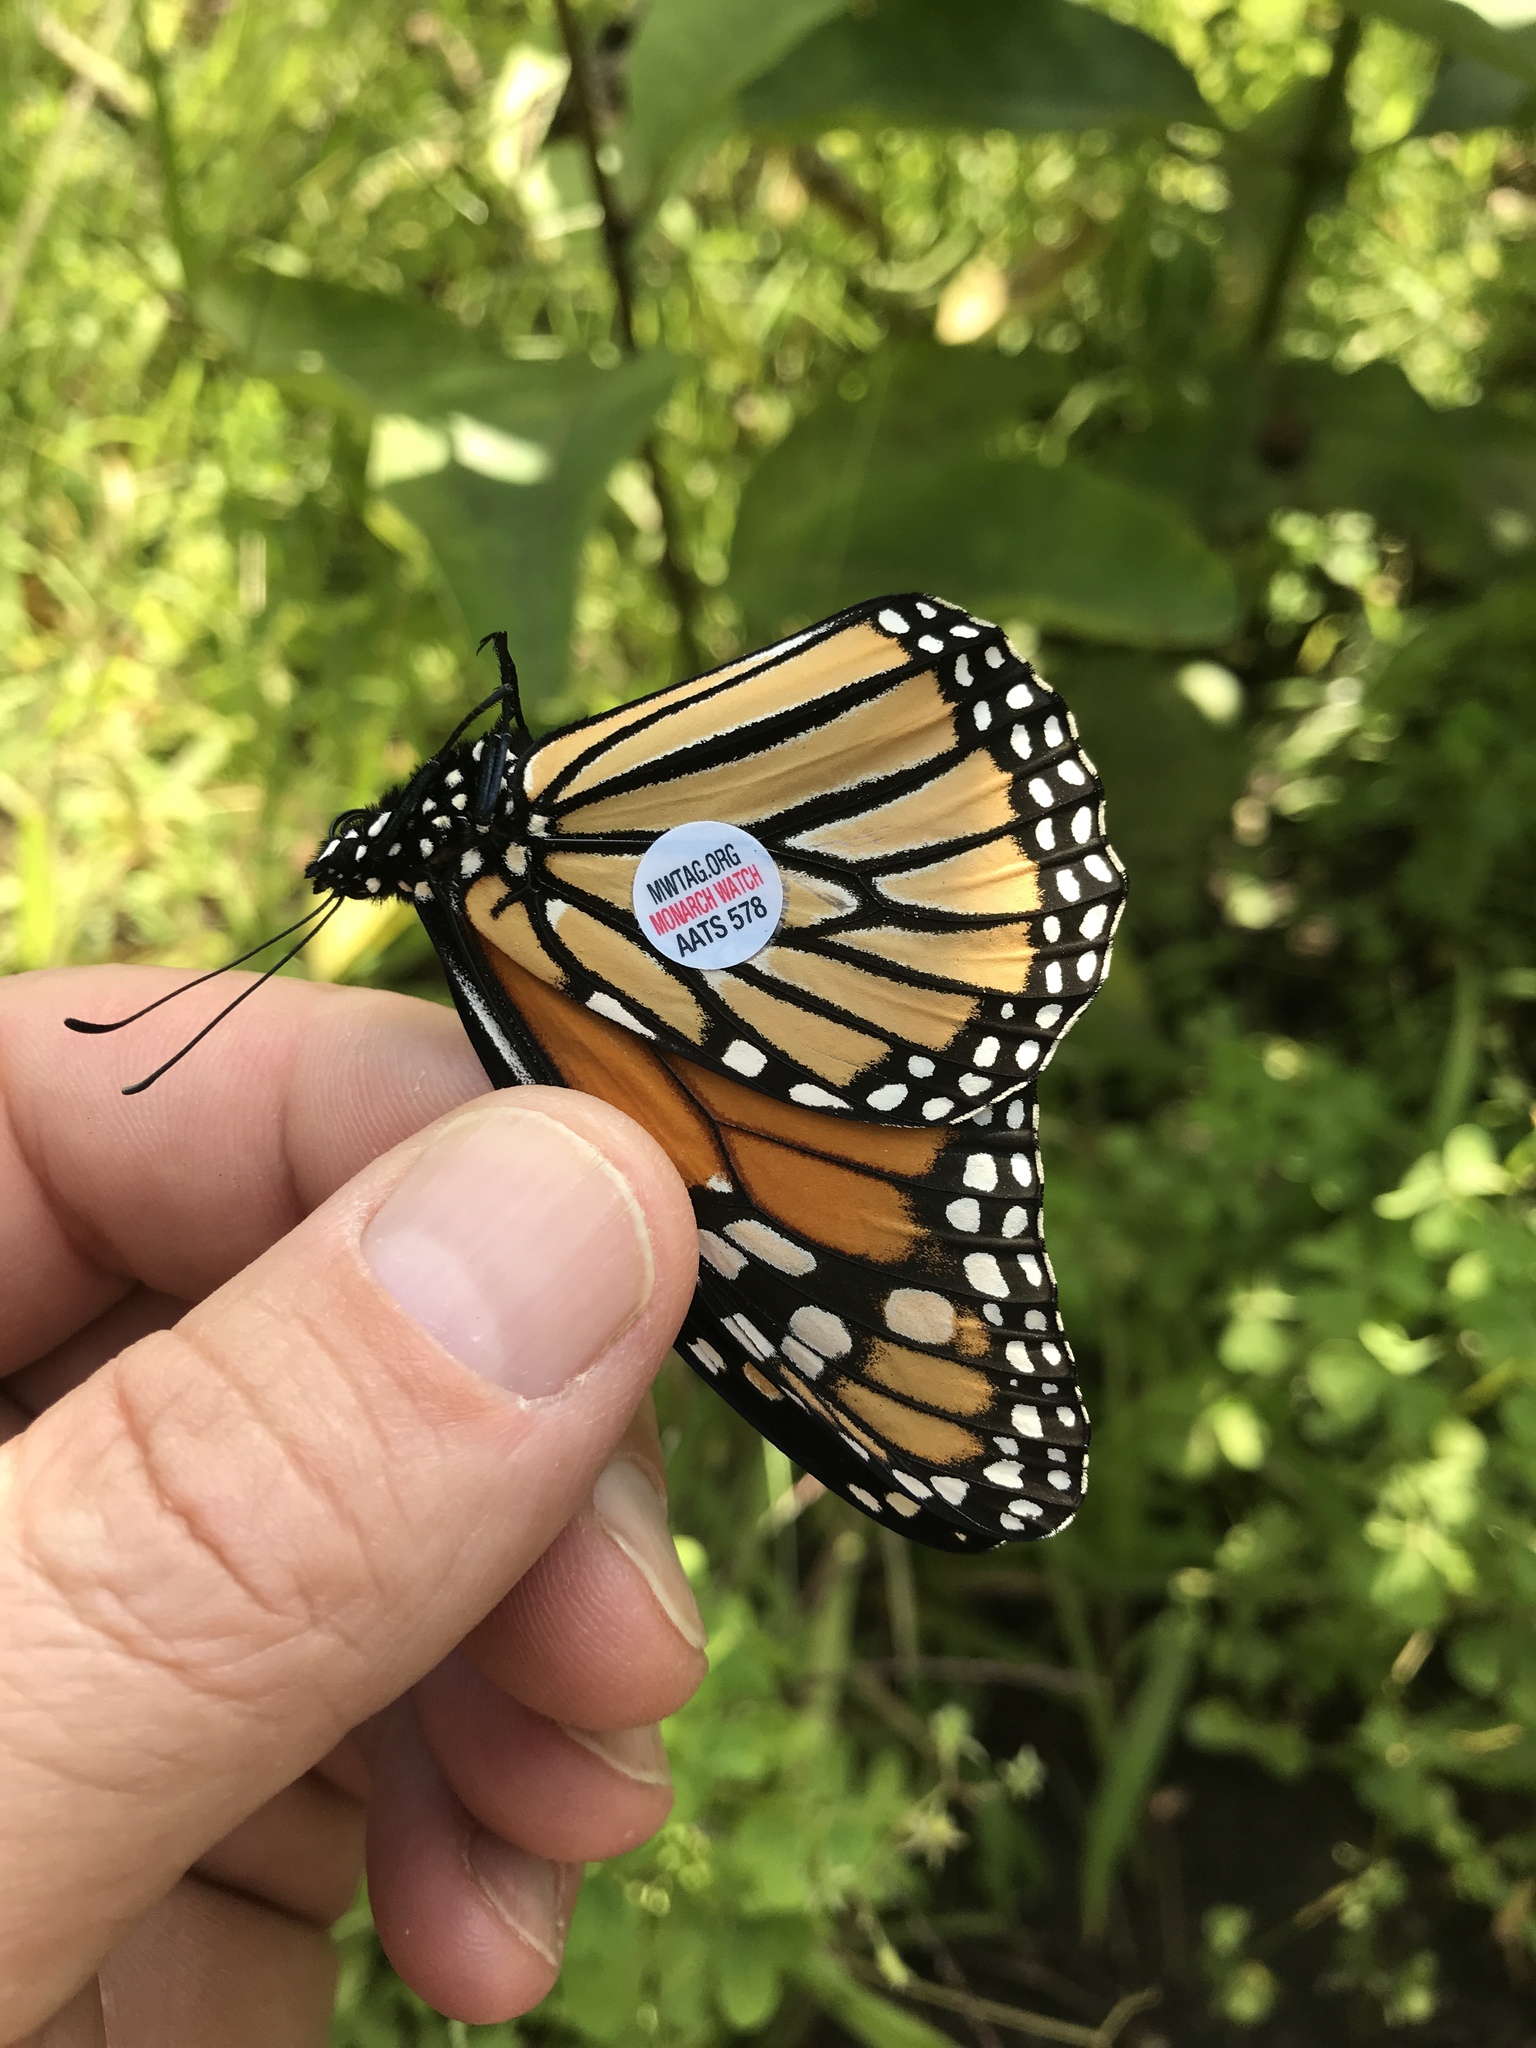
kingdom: Animalia
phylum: Arthropoda
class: Insecta
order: Lepidoptera
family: Nymphalidae
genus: Danaus
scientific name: Danaus plexippus
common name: Monarch
